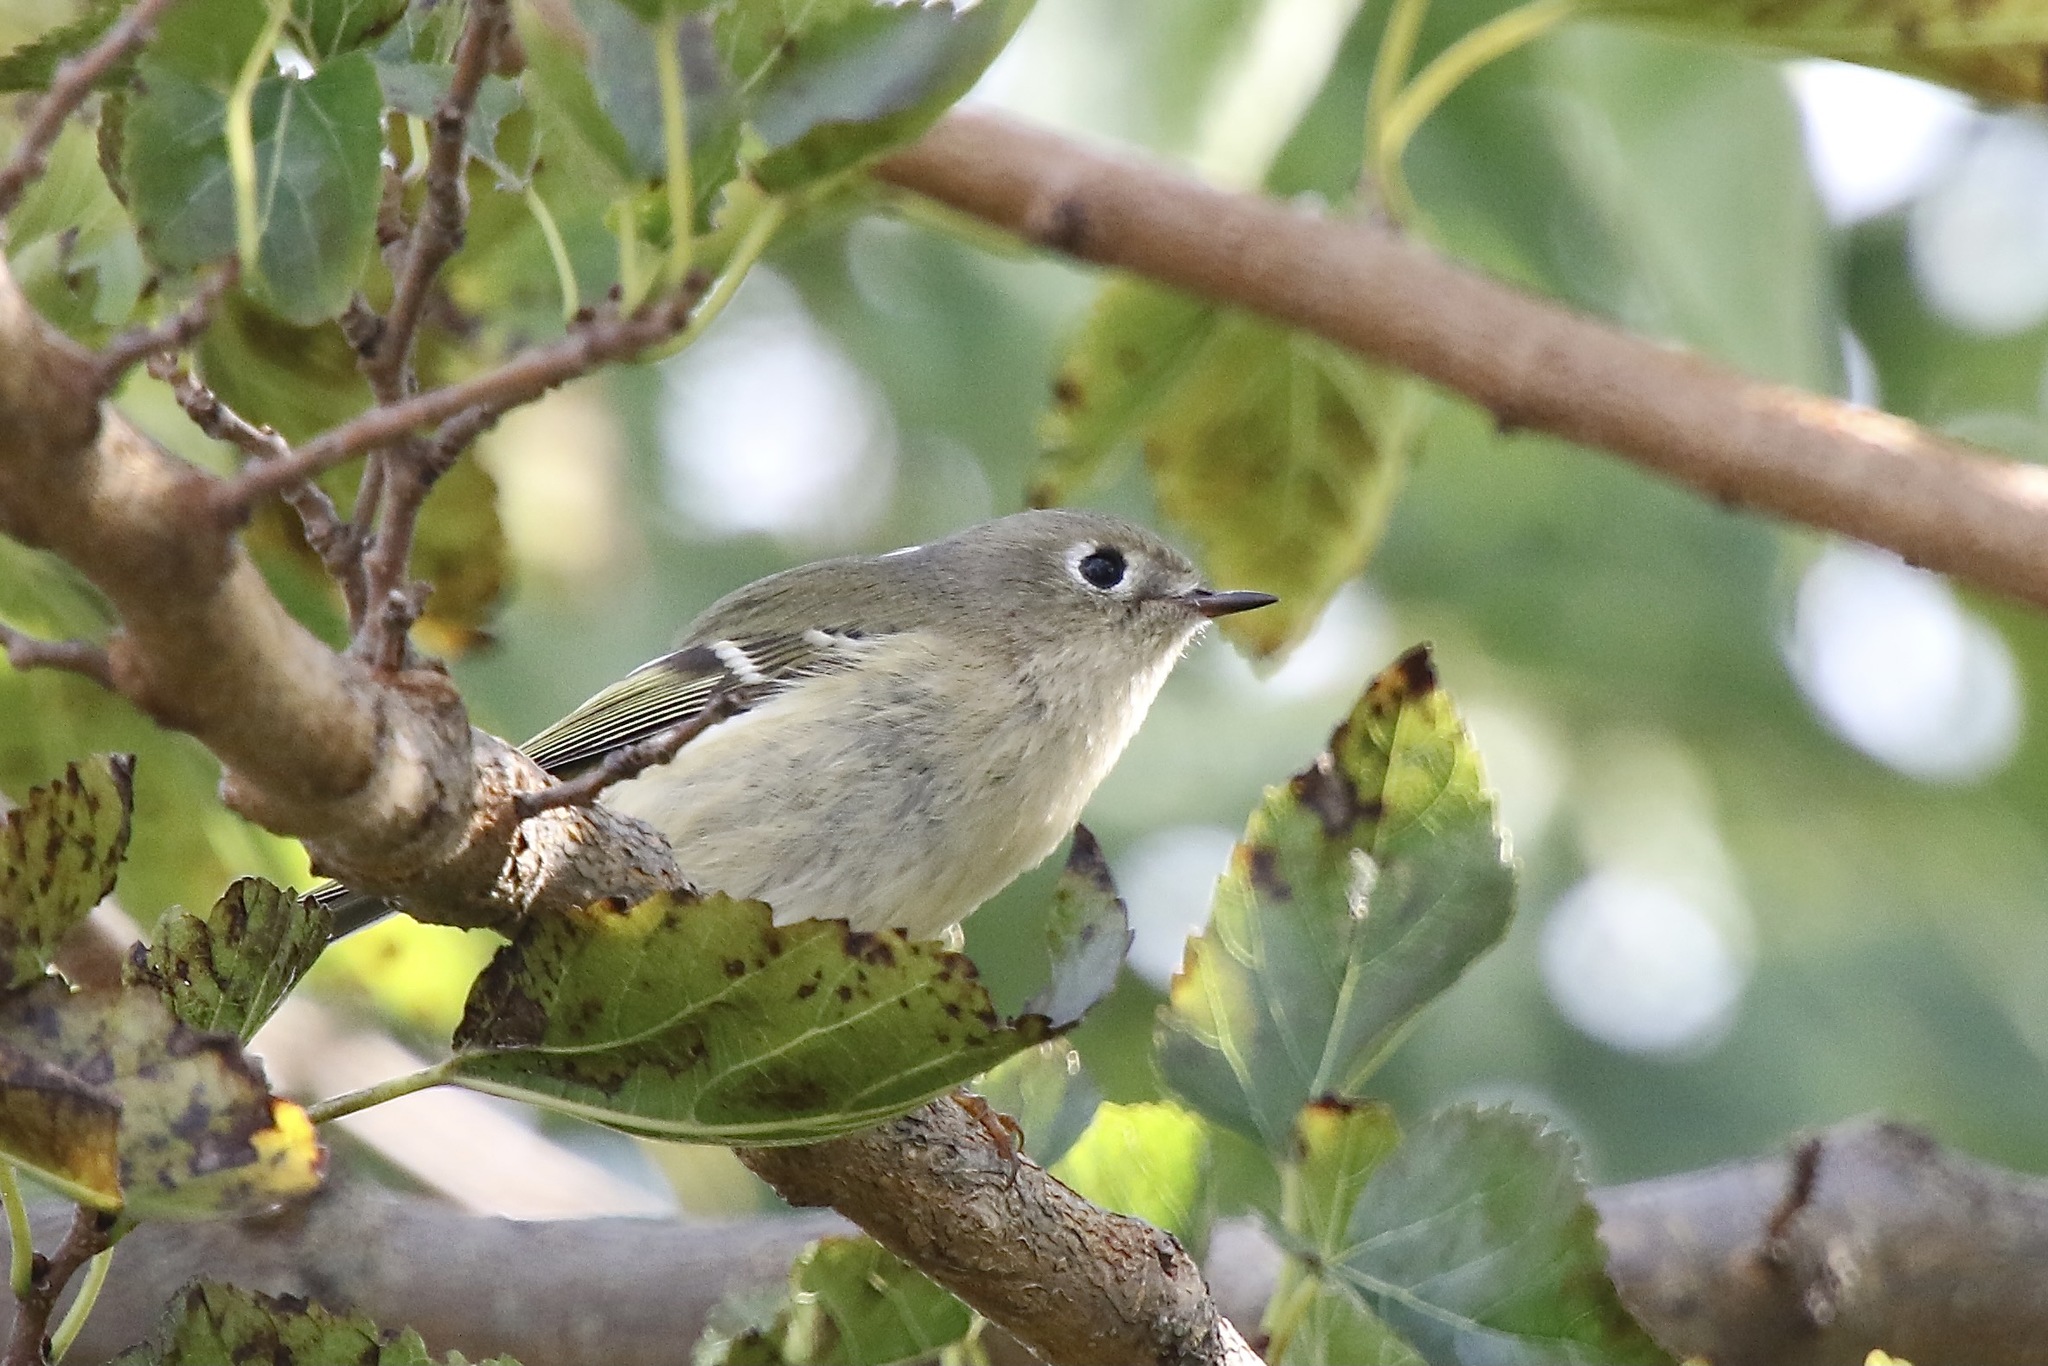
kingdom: Animalia
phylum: Chordata
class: Aves
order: Passeriformes
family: Regulidae
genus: Regulus
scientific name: Regulus calendula
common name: Ruby-crowned kinglet
